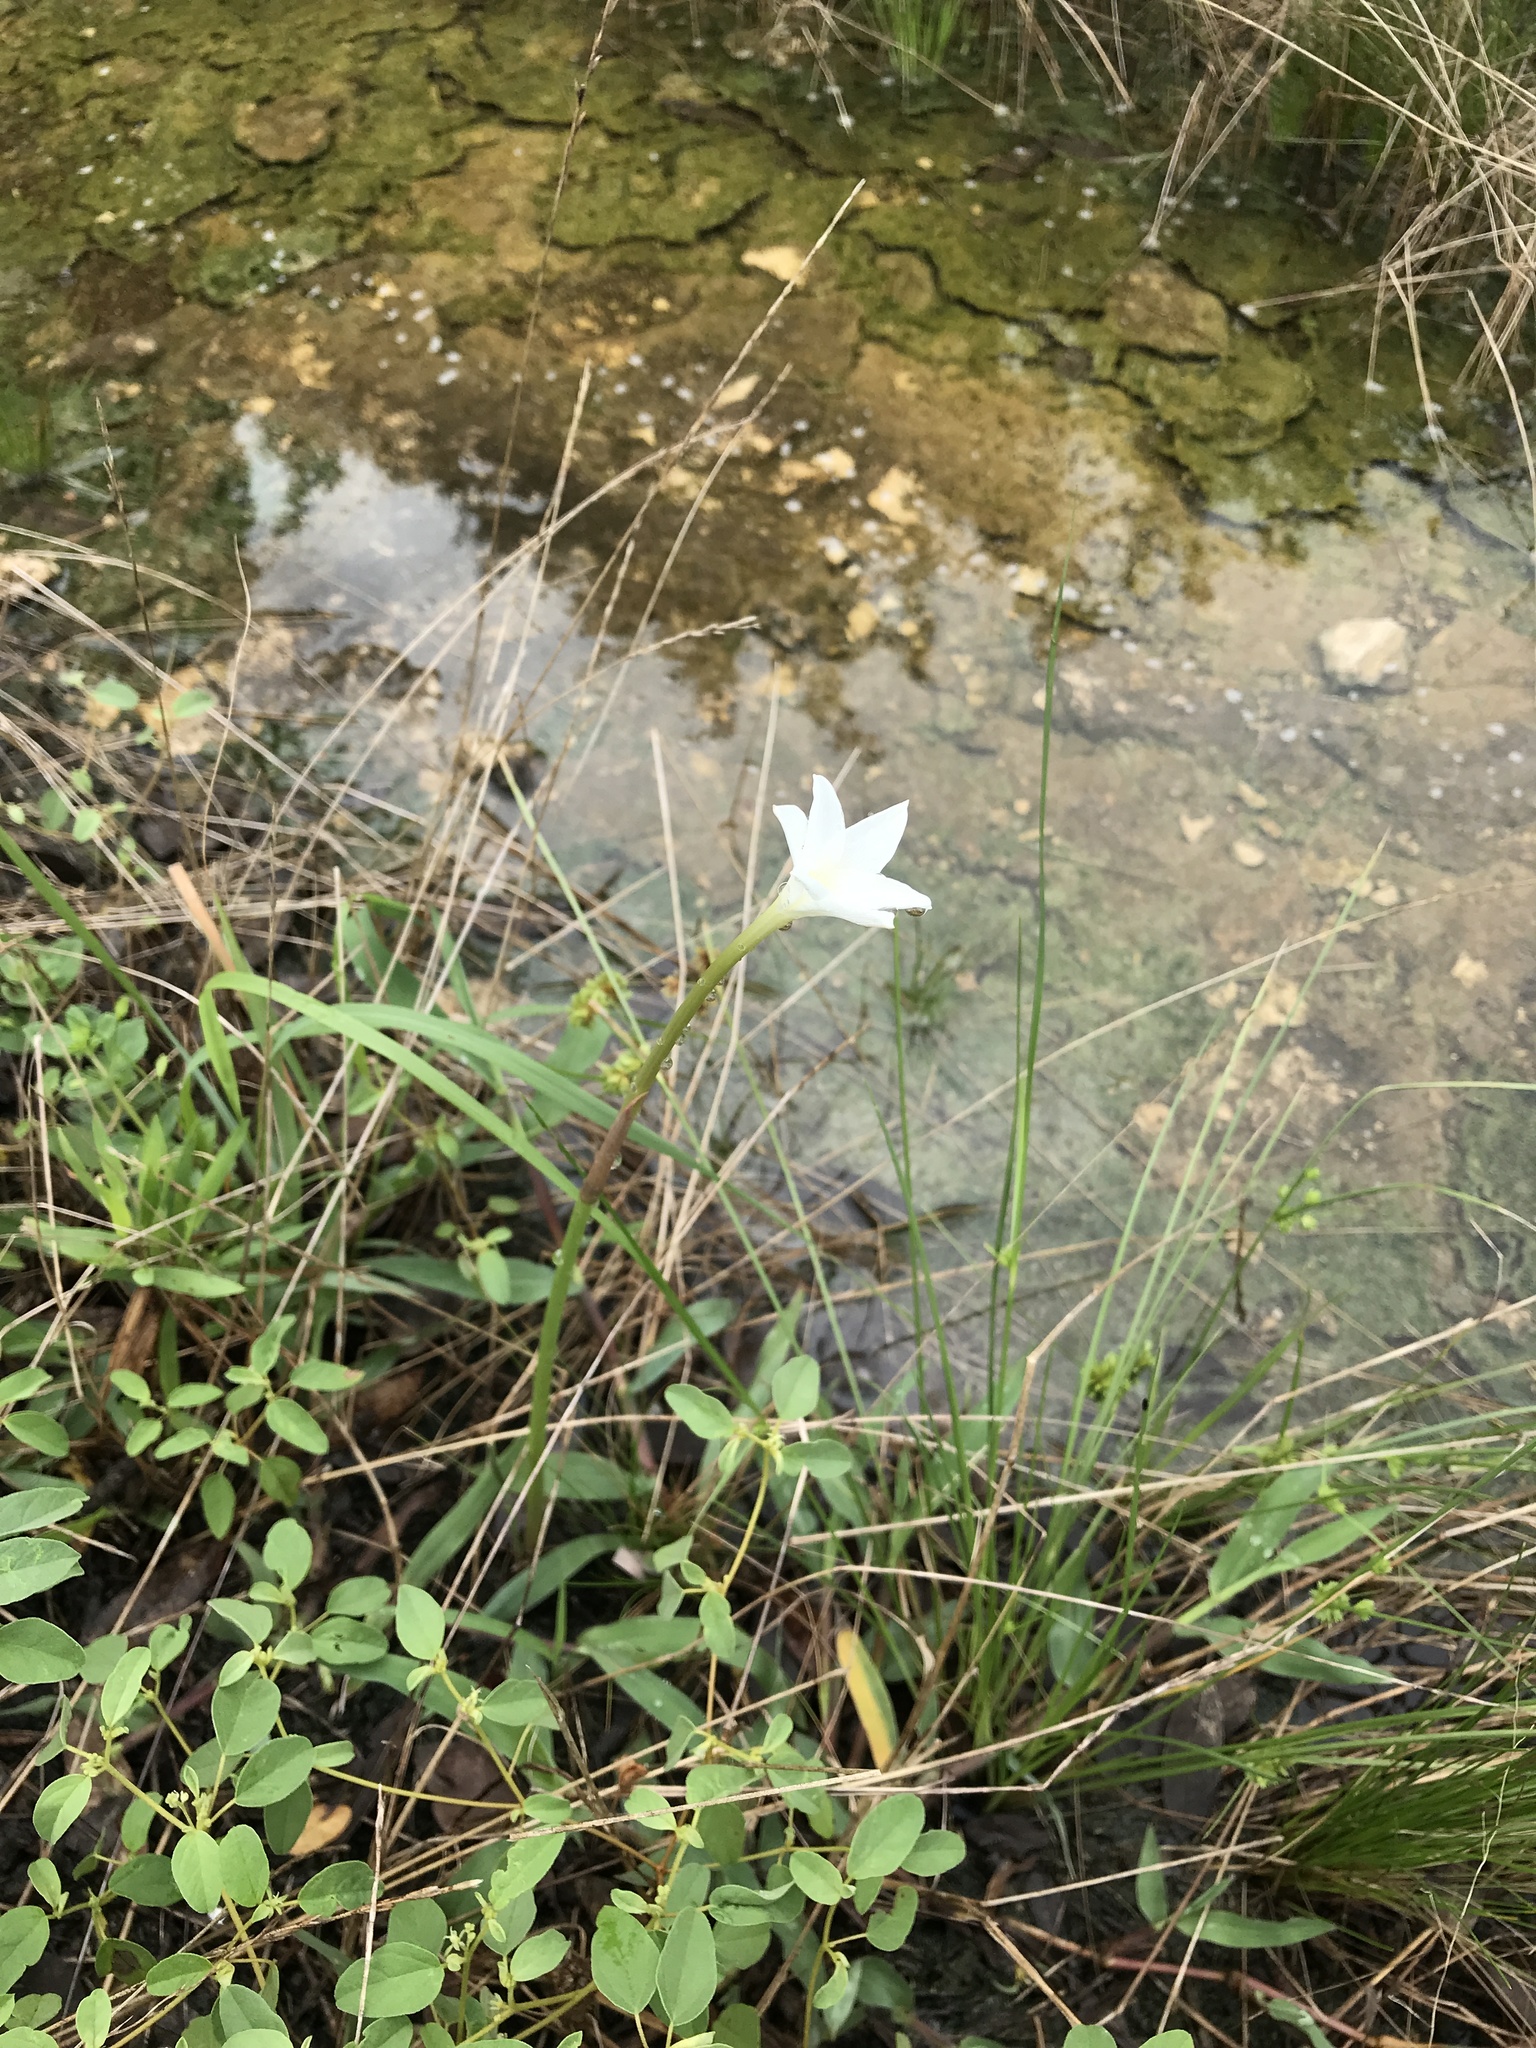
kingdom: Plantae
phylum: Tracheophyta
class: Liliopsida
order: Asparagales
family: Amaryllidaceae
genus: Zephyranthes
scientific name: Zephyranthes chlorosolen
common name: Evening rain-lily
